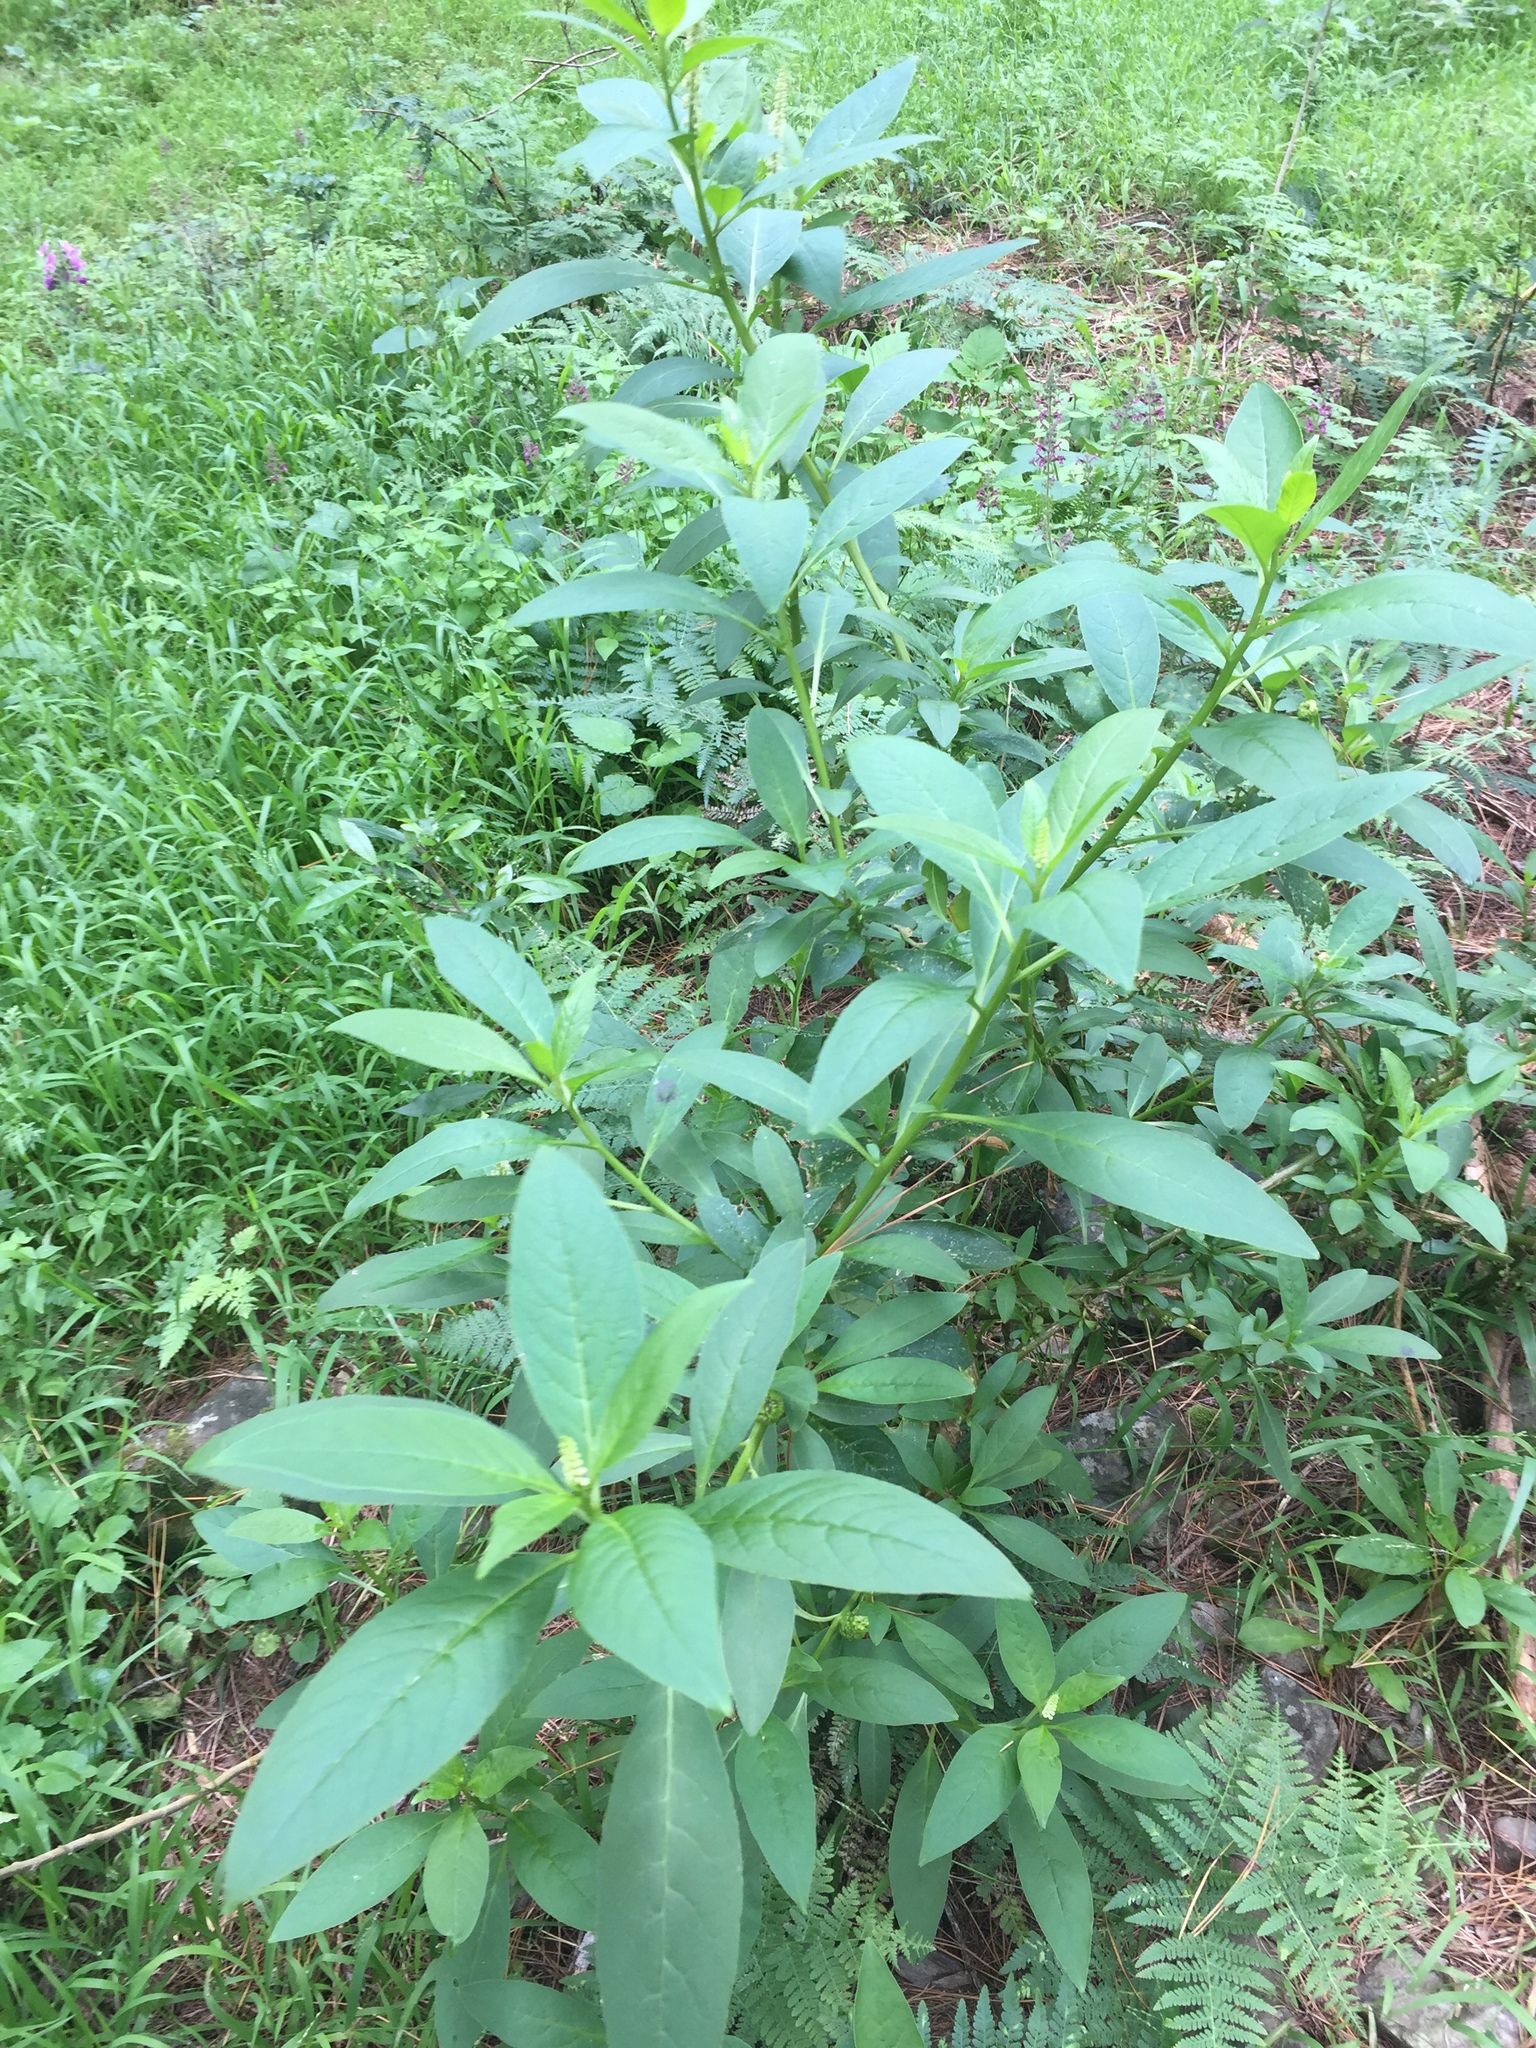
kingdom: Plantae
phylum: Tracheophyta
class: Magnoliopsida
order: Caryophyllales
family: Phytolaccaceae
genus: Phytolacca
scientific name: Phytolacca icosandra
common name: Button pokeweed
